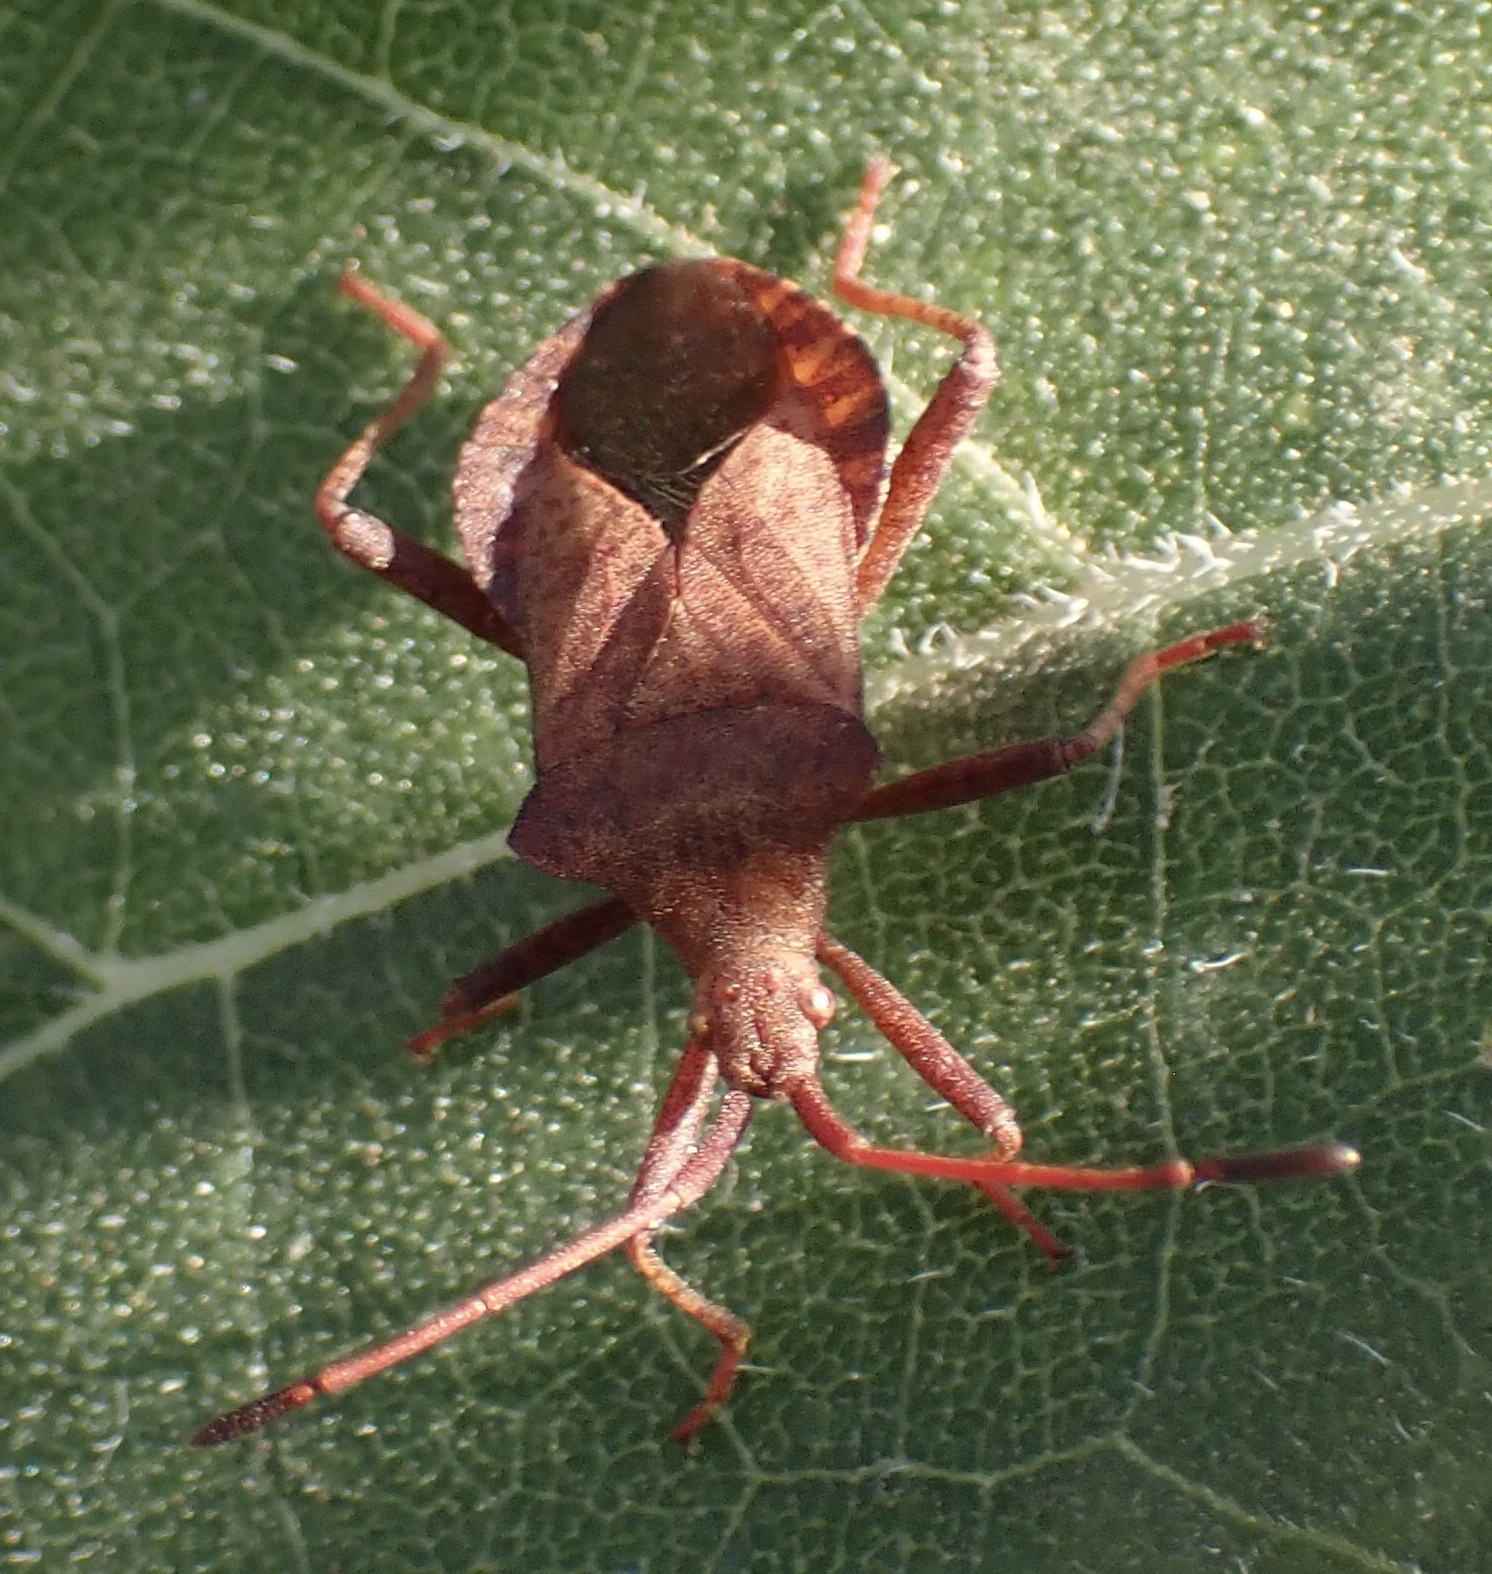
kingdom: Animalia
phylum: Arthropoda
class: Insecta
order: Hemiptera
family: Coreidae
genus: Coreus
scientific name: Coreus marginatus
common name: Dock bug
